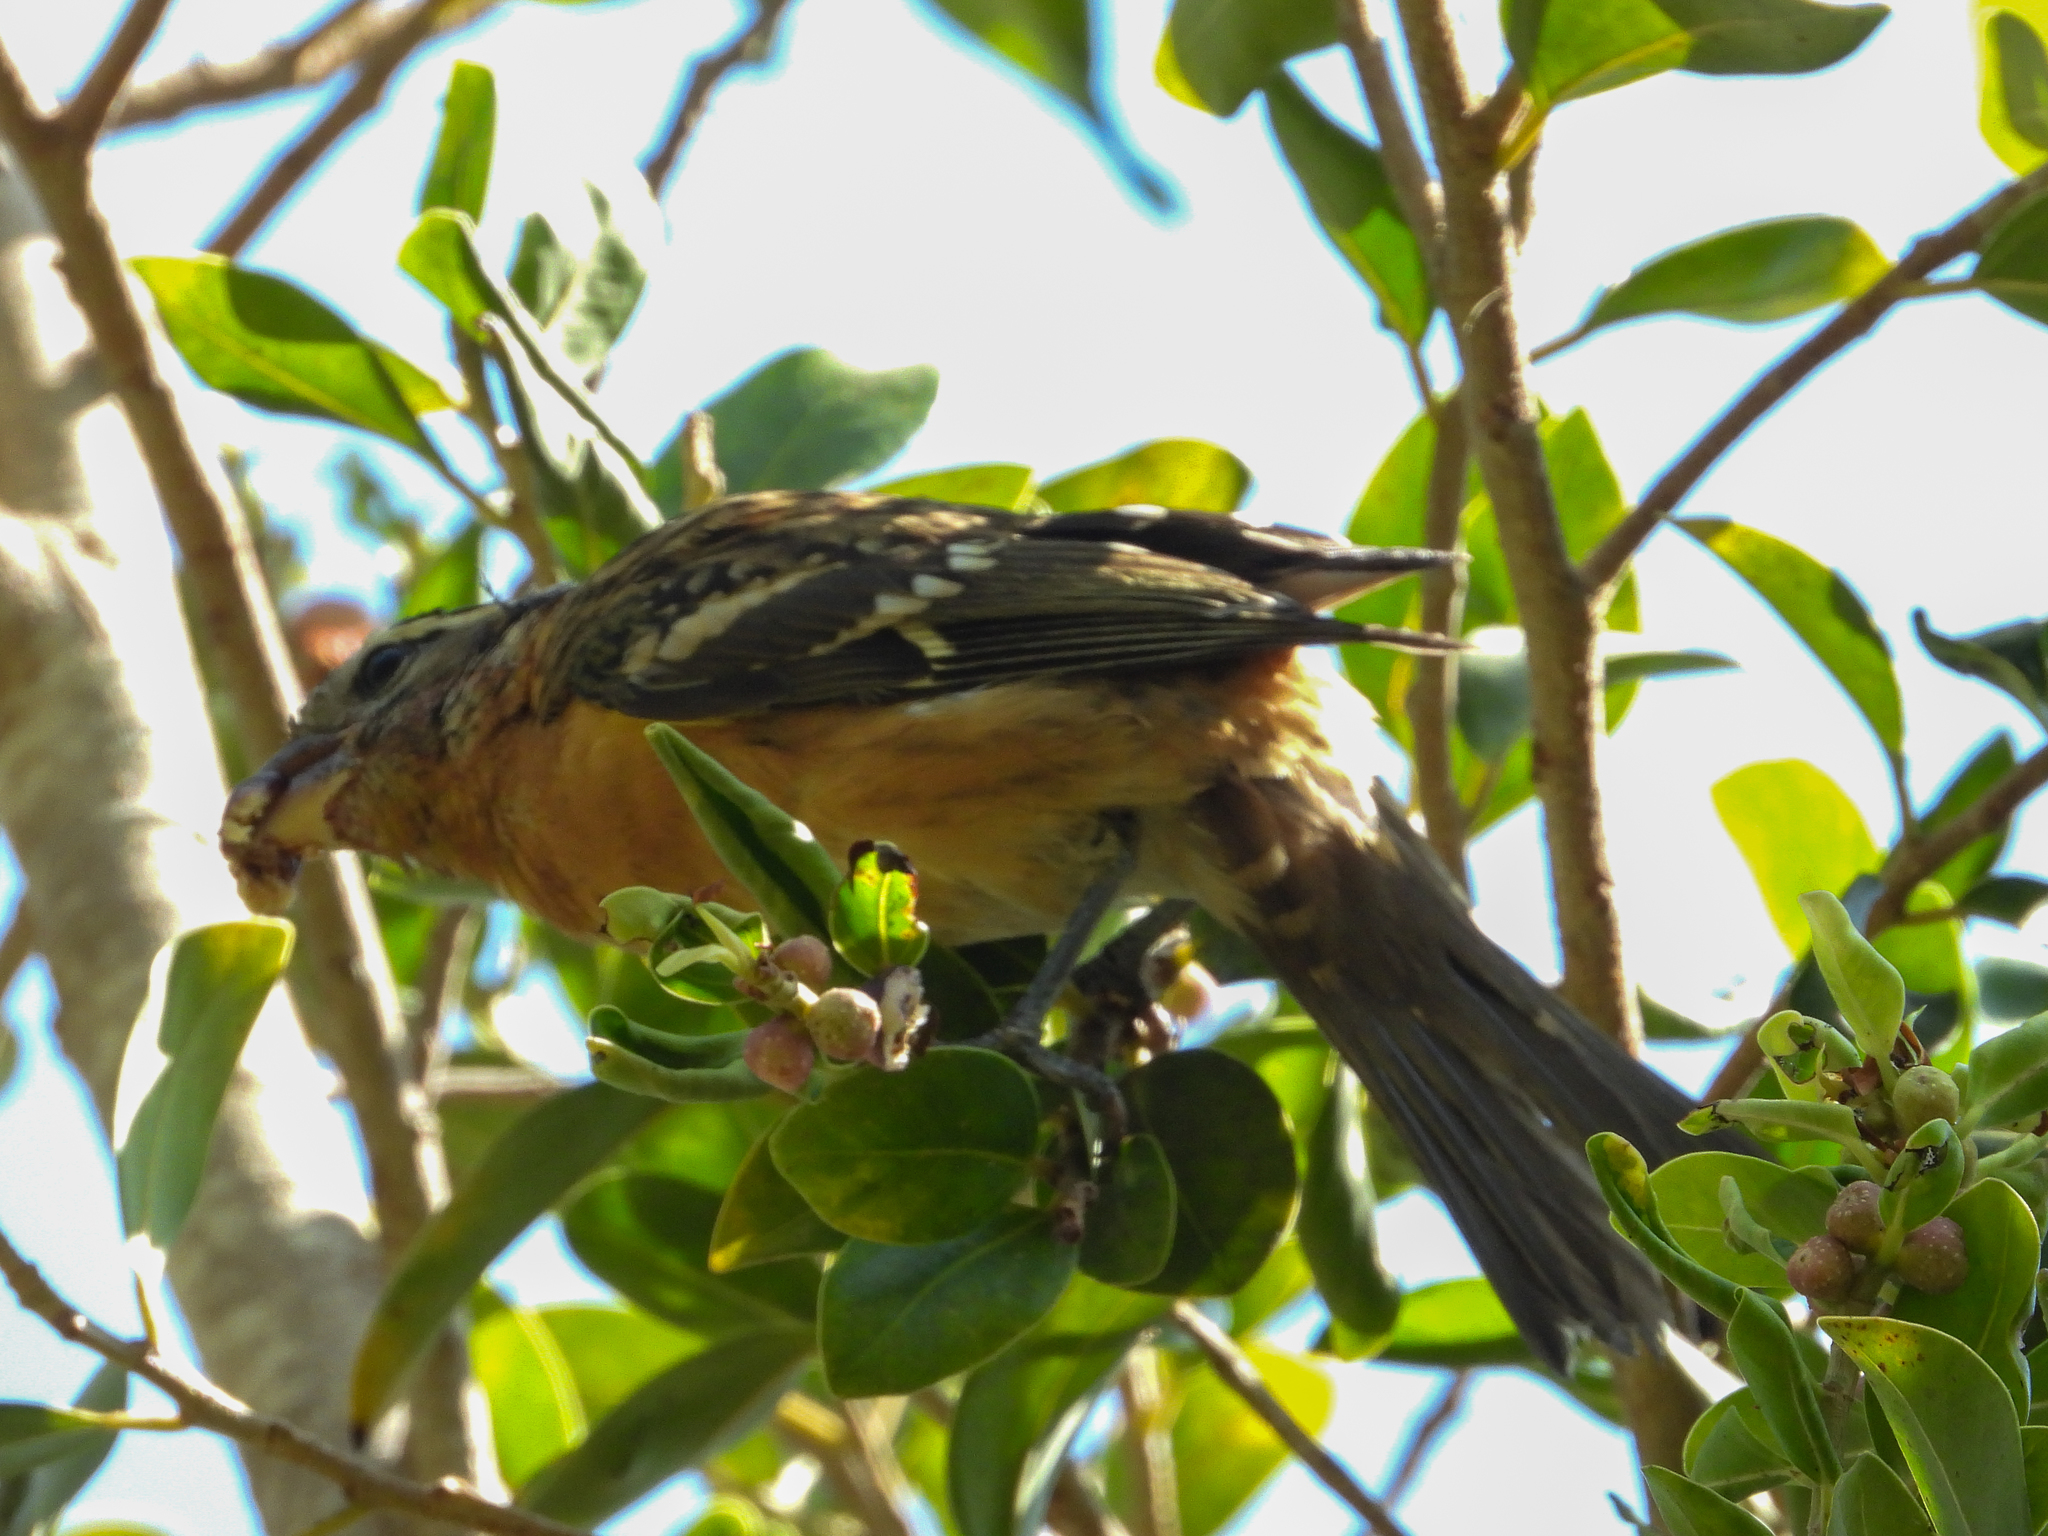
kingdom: Animalia
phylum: Chordata
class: Aves
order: Passeriformes
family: Cardinalidae
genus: Pheucticus
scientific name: Pheucticus melanocephalus
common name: Black-headed grosbeak
